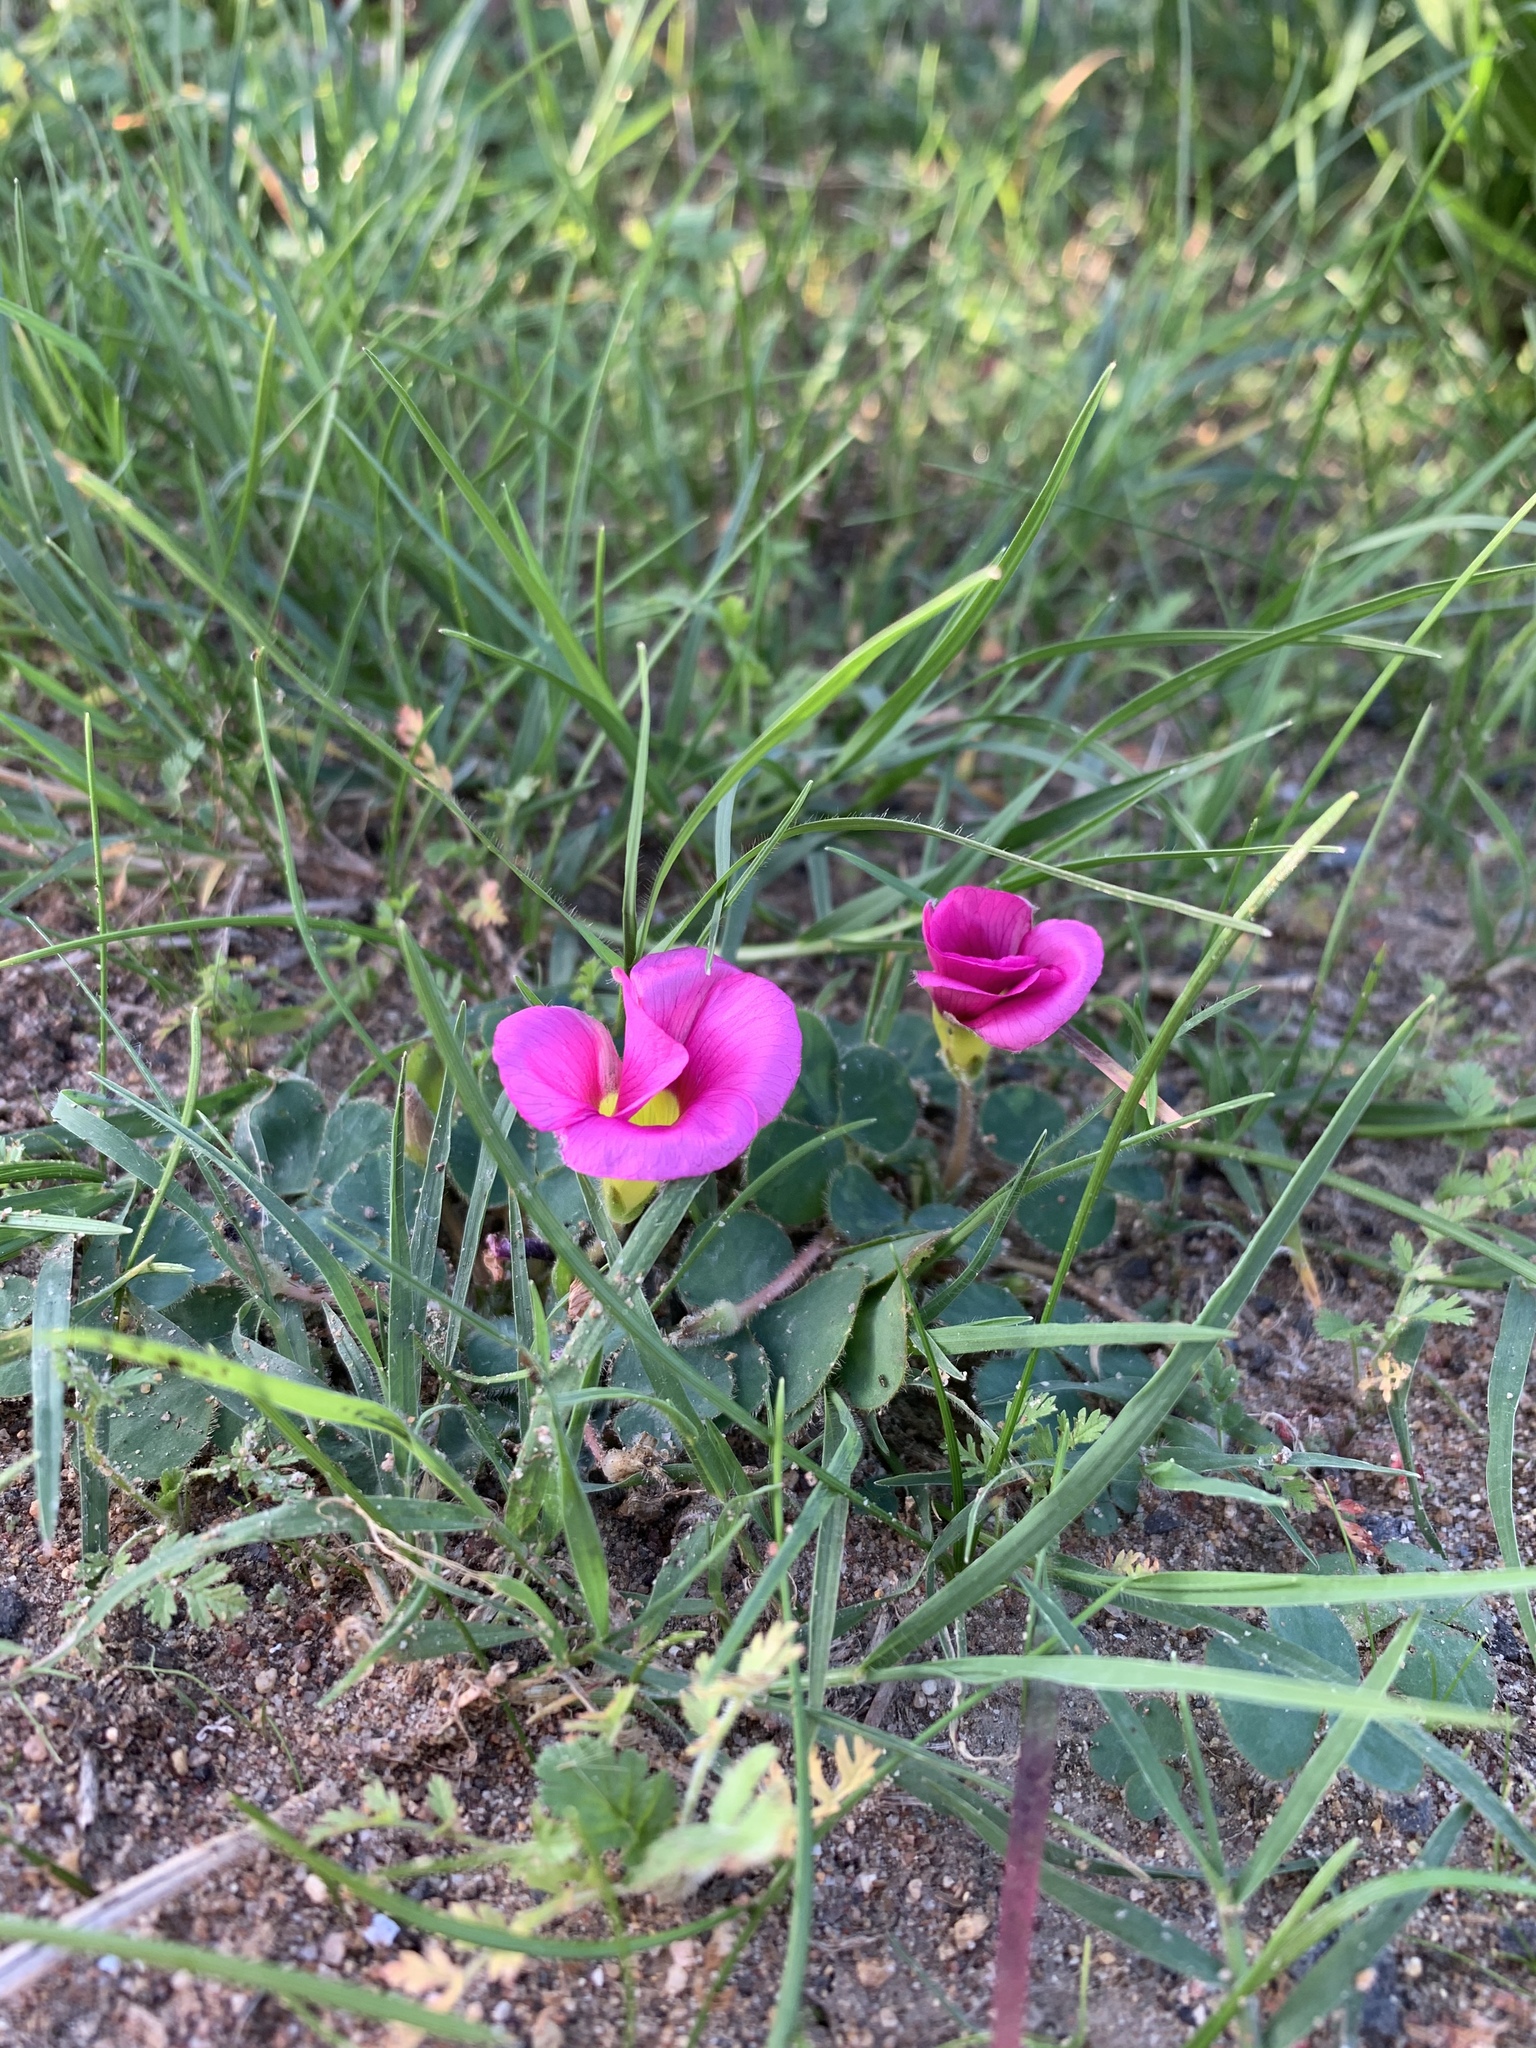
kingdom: Plantae
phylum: Tracheophyta
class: Magnoliopsida
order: Oxalidales
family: Oxalidaceae
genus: Oxalis
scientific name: Oxalis purpurea
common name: Purple woodsorrel
